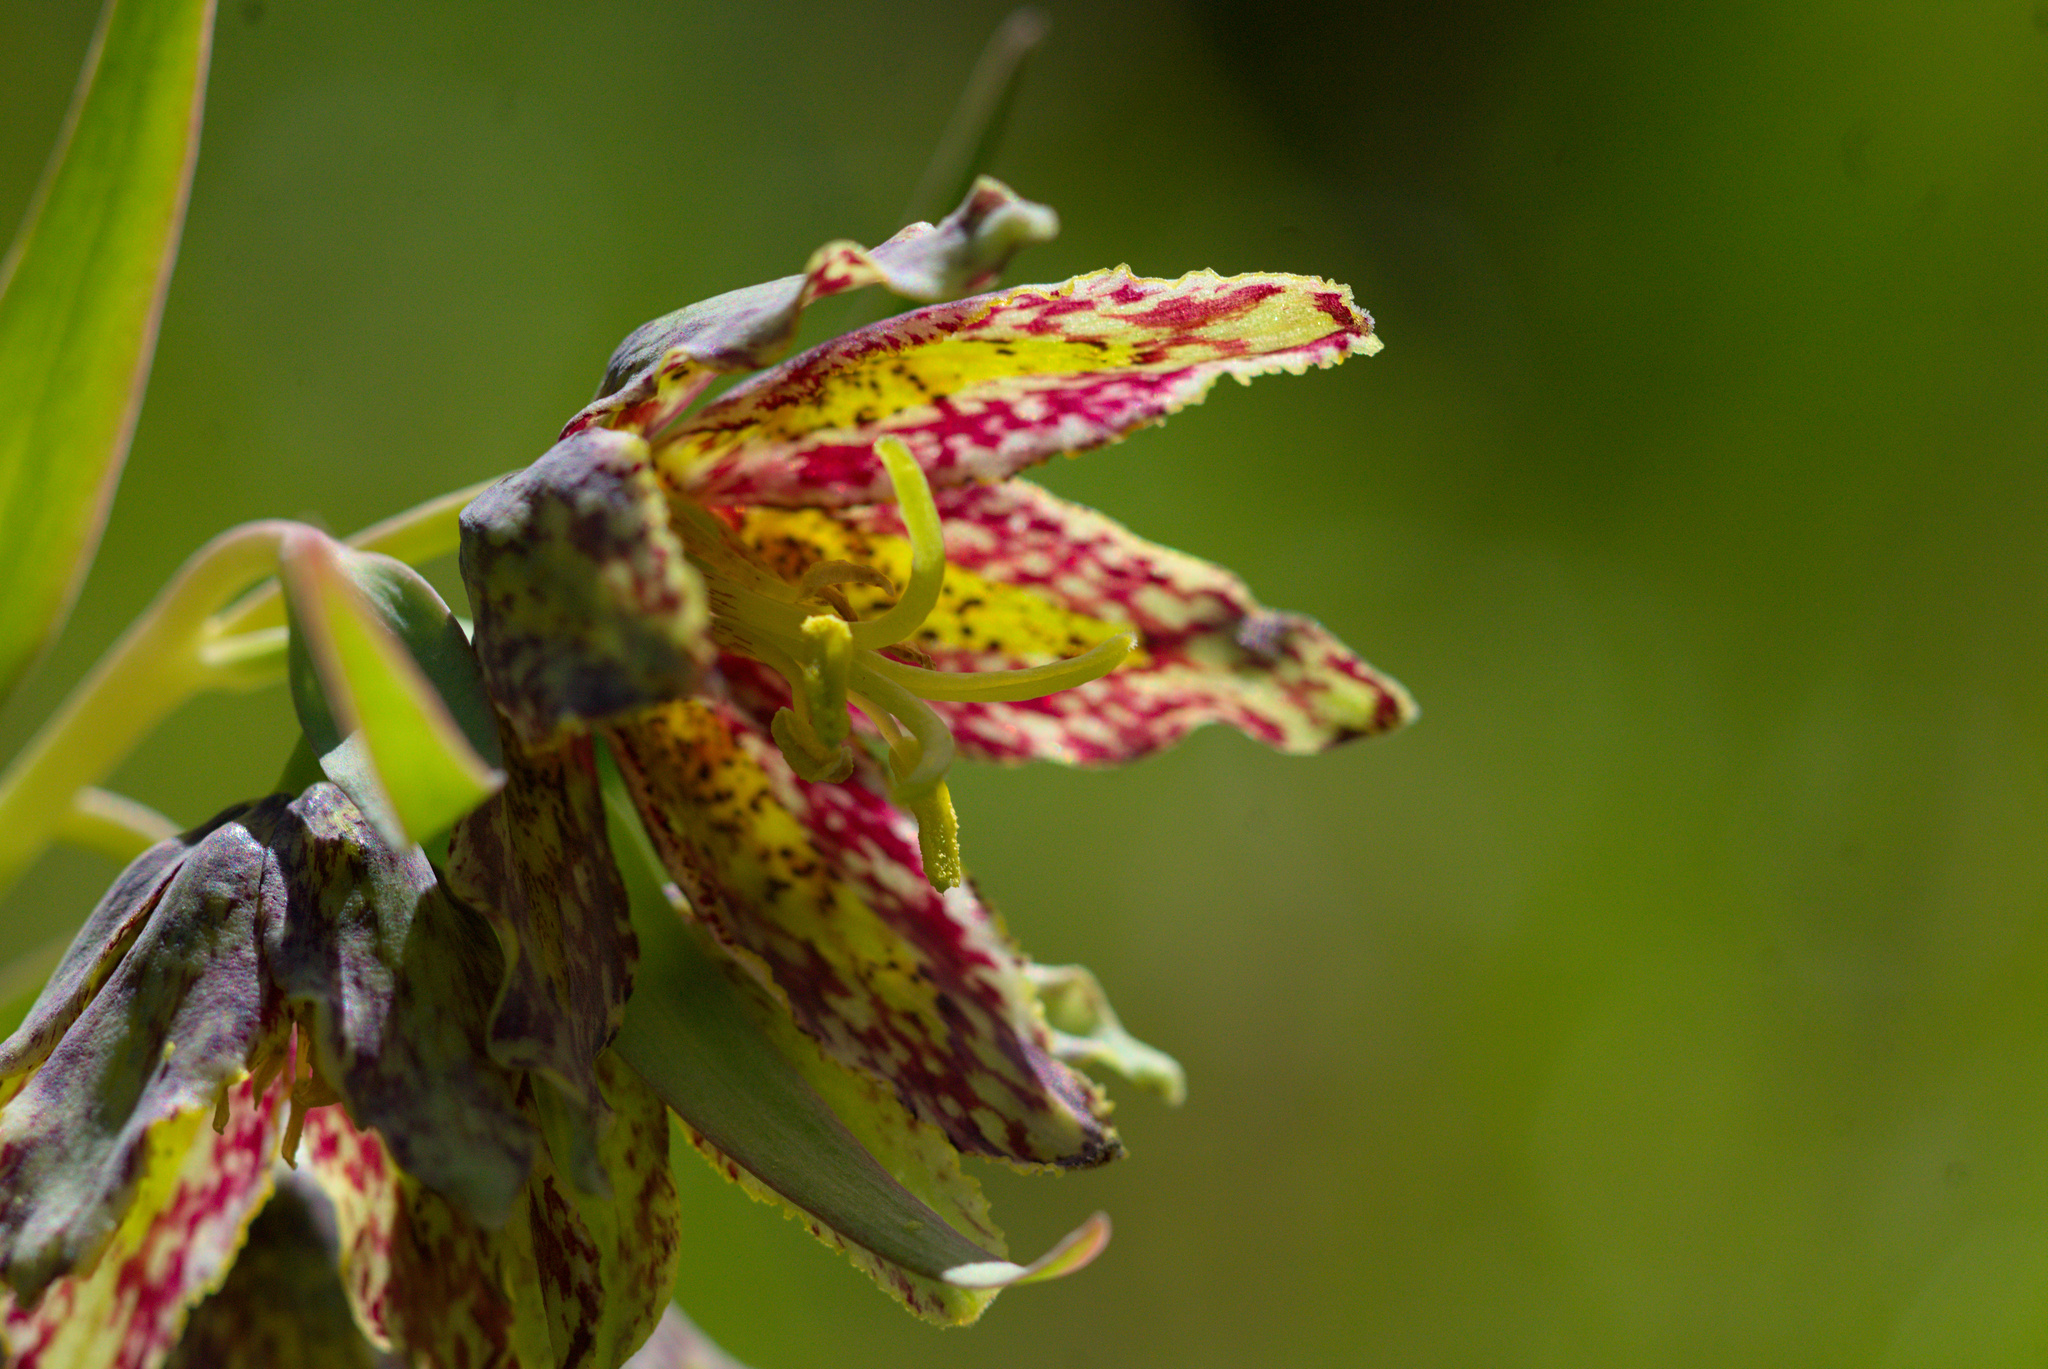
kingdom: Plantae
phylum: Tracheophyta
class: Liliopsida
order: Liliales
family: Liliaceae
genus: Fritillaria
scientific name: Fritillaria affinis
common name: Ojai fritillary
